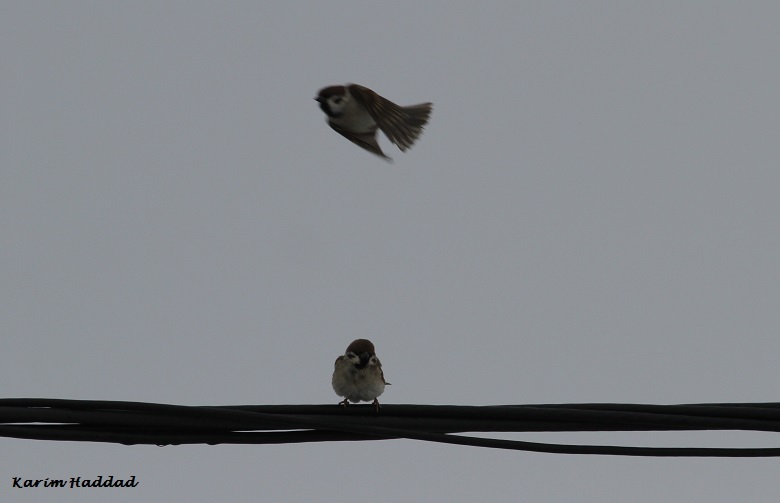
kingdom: Animalia
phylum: Chordata
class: Aves
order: Passeriformes
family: Passeridae
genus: Passer
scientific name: Passer montanus
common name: Eurasian tree sparrow
